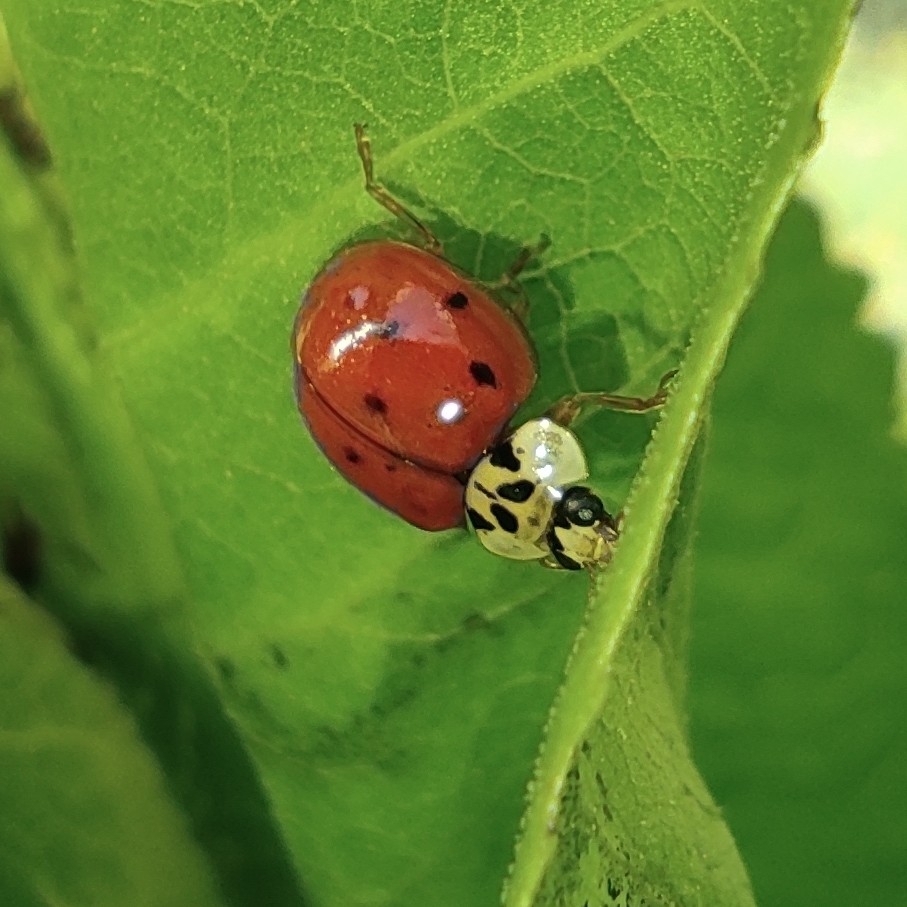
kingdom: Animalia
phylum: Arthropoda
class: Insecta
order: Coleoptera
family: Coccinellidae
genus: Harmonia
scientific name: Harmonia axyridis
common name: Harlequin ladybird
